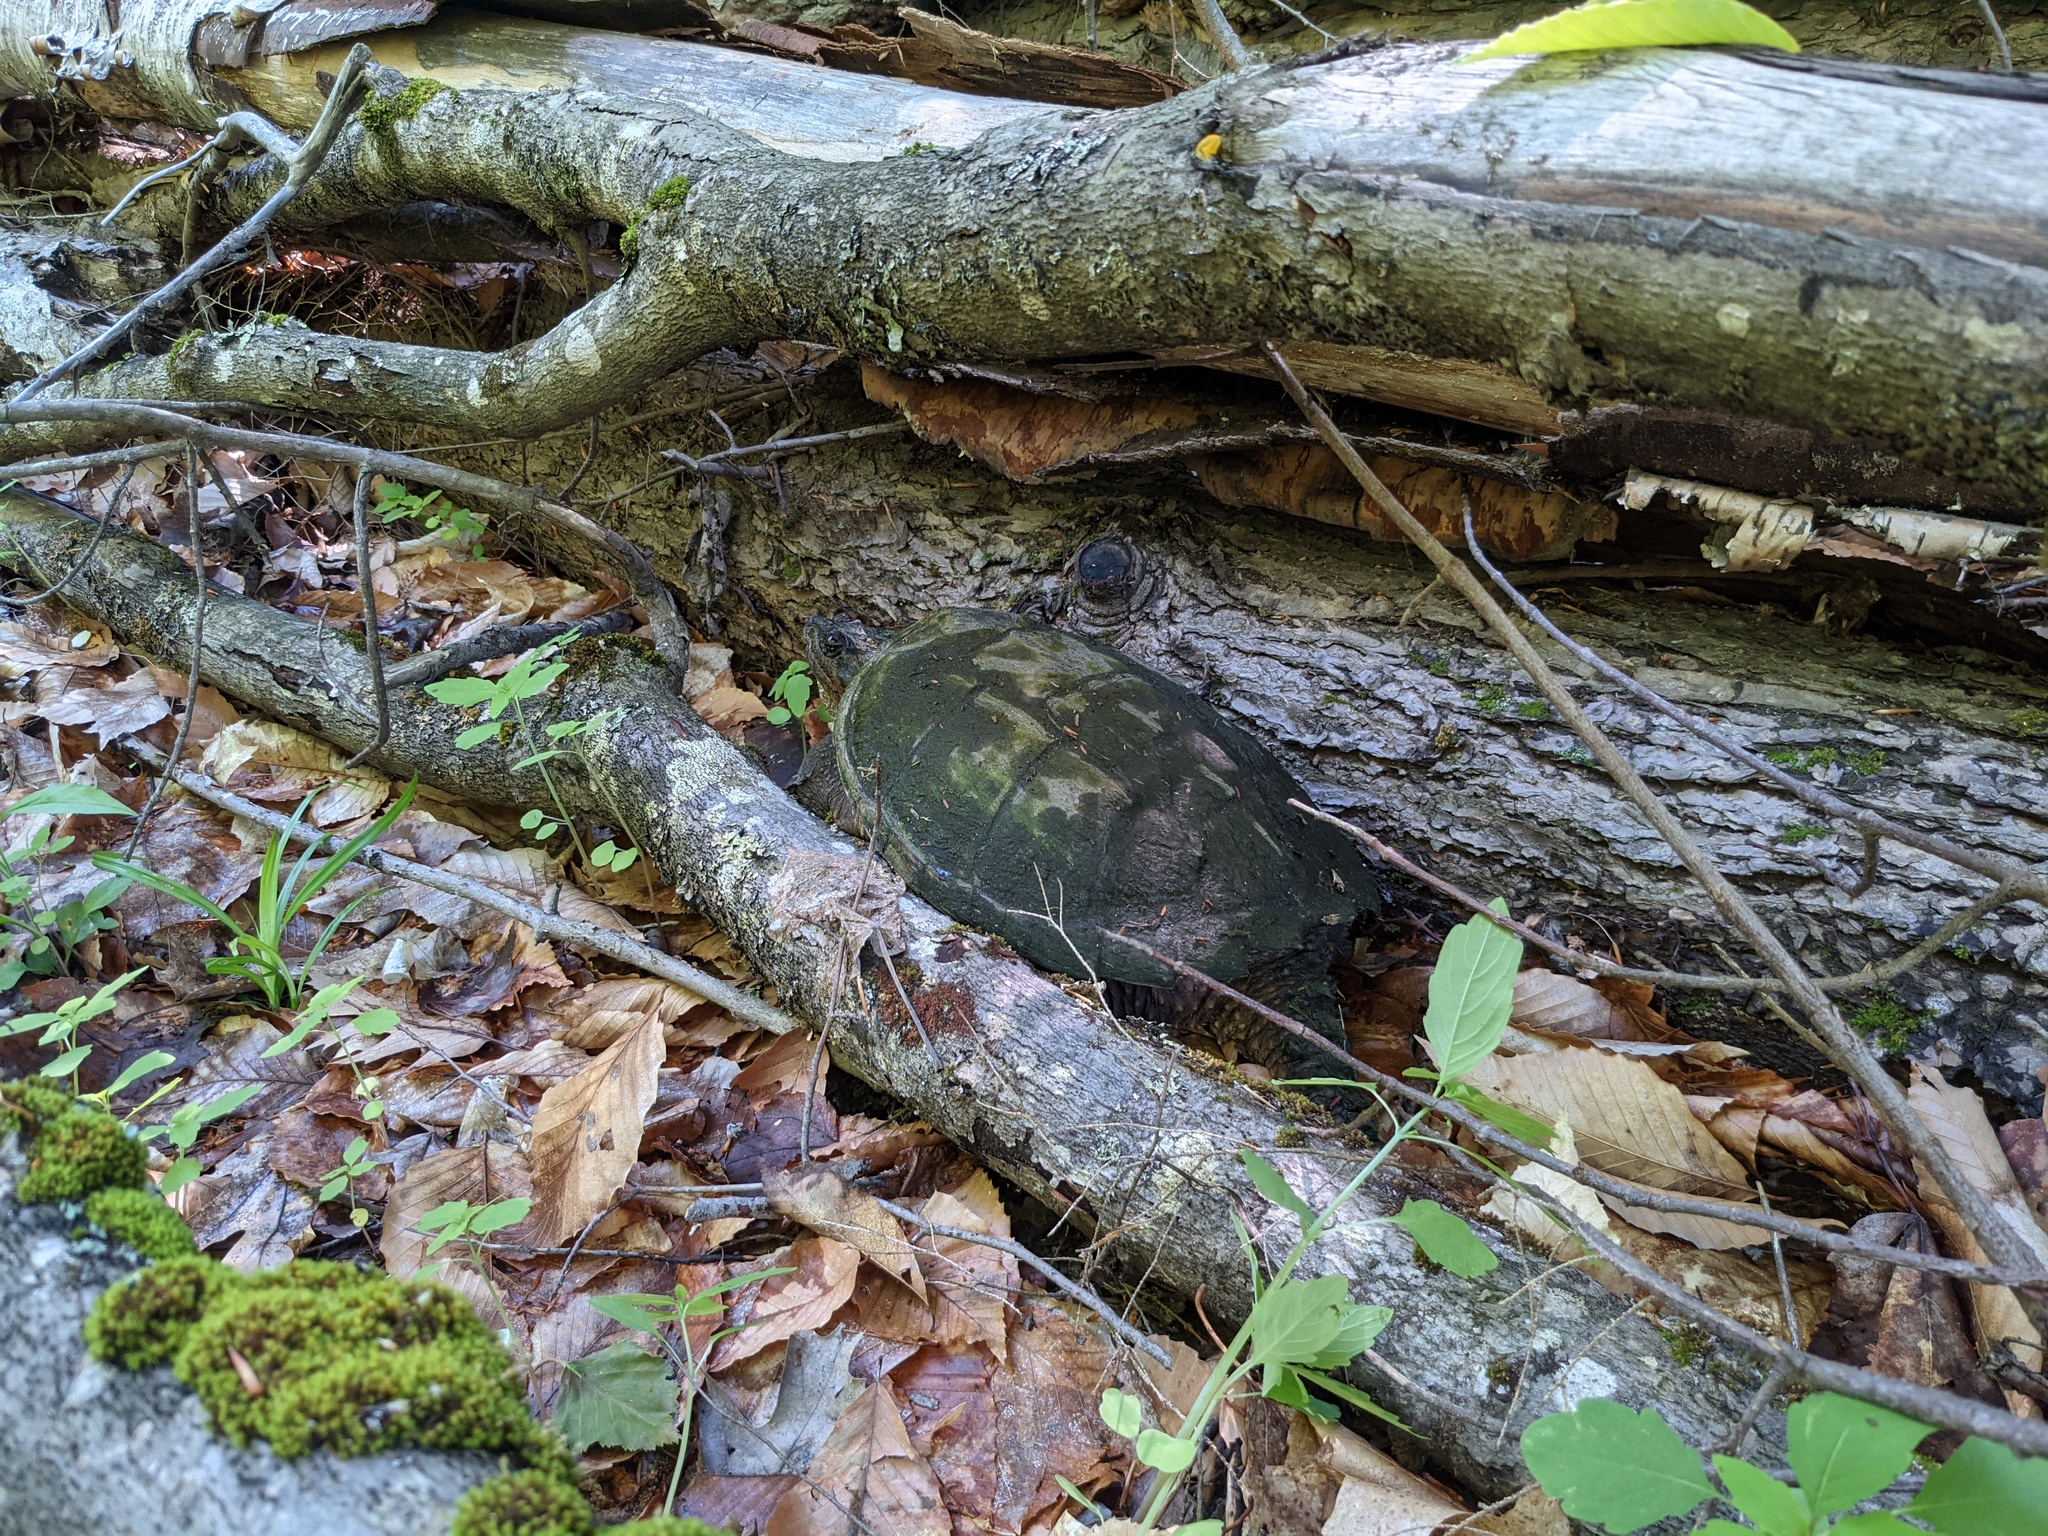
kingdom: Animalia
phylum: Chordata
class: Testudines
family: Chelydridae
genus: Chelydra
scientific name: Chelydra serpentina
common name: Common snapping turtle
